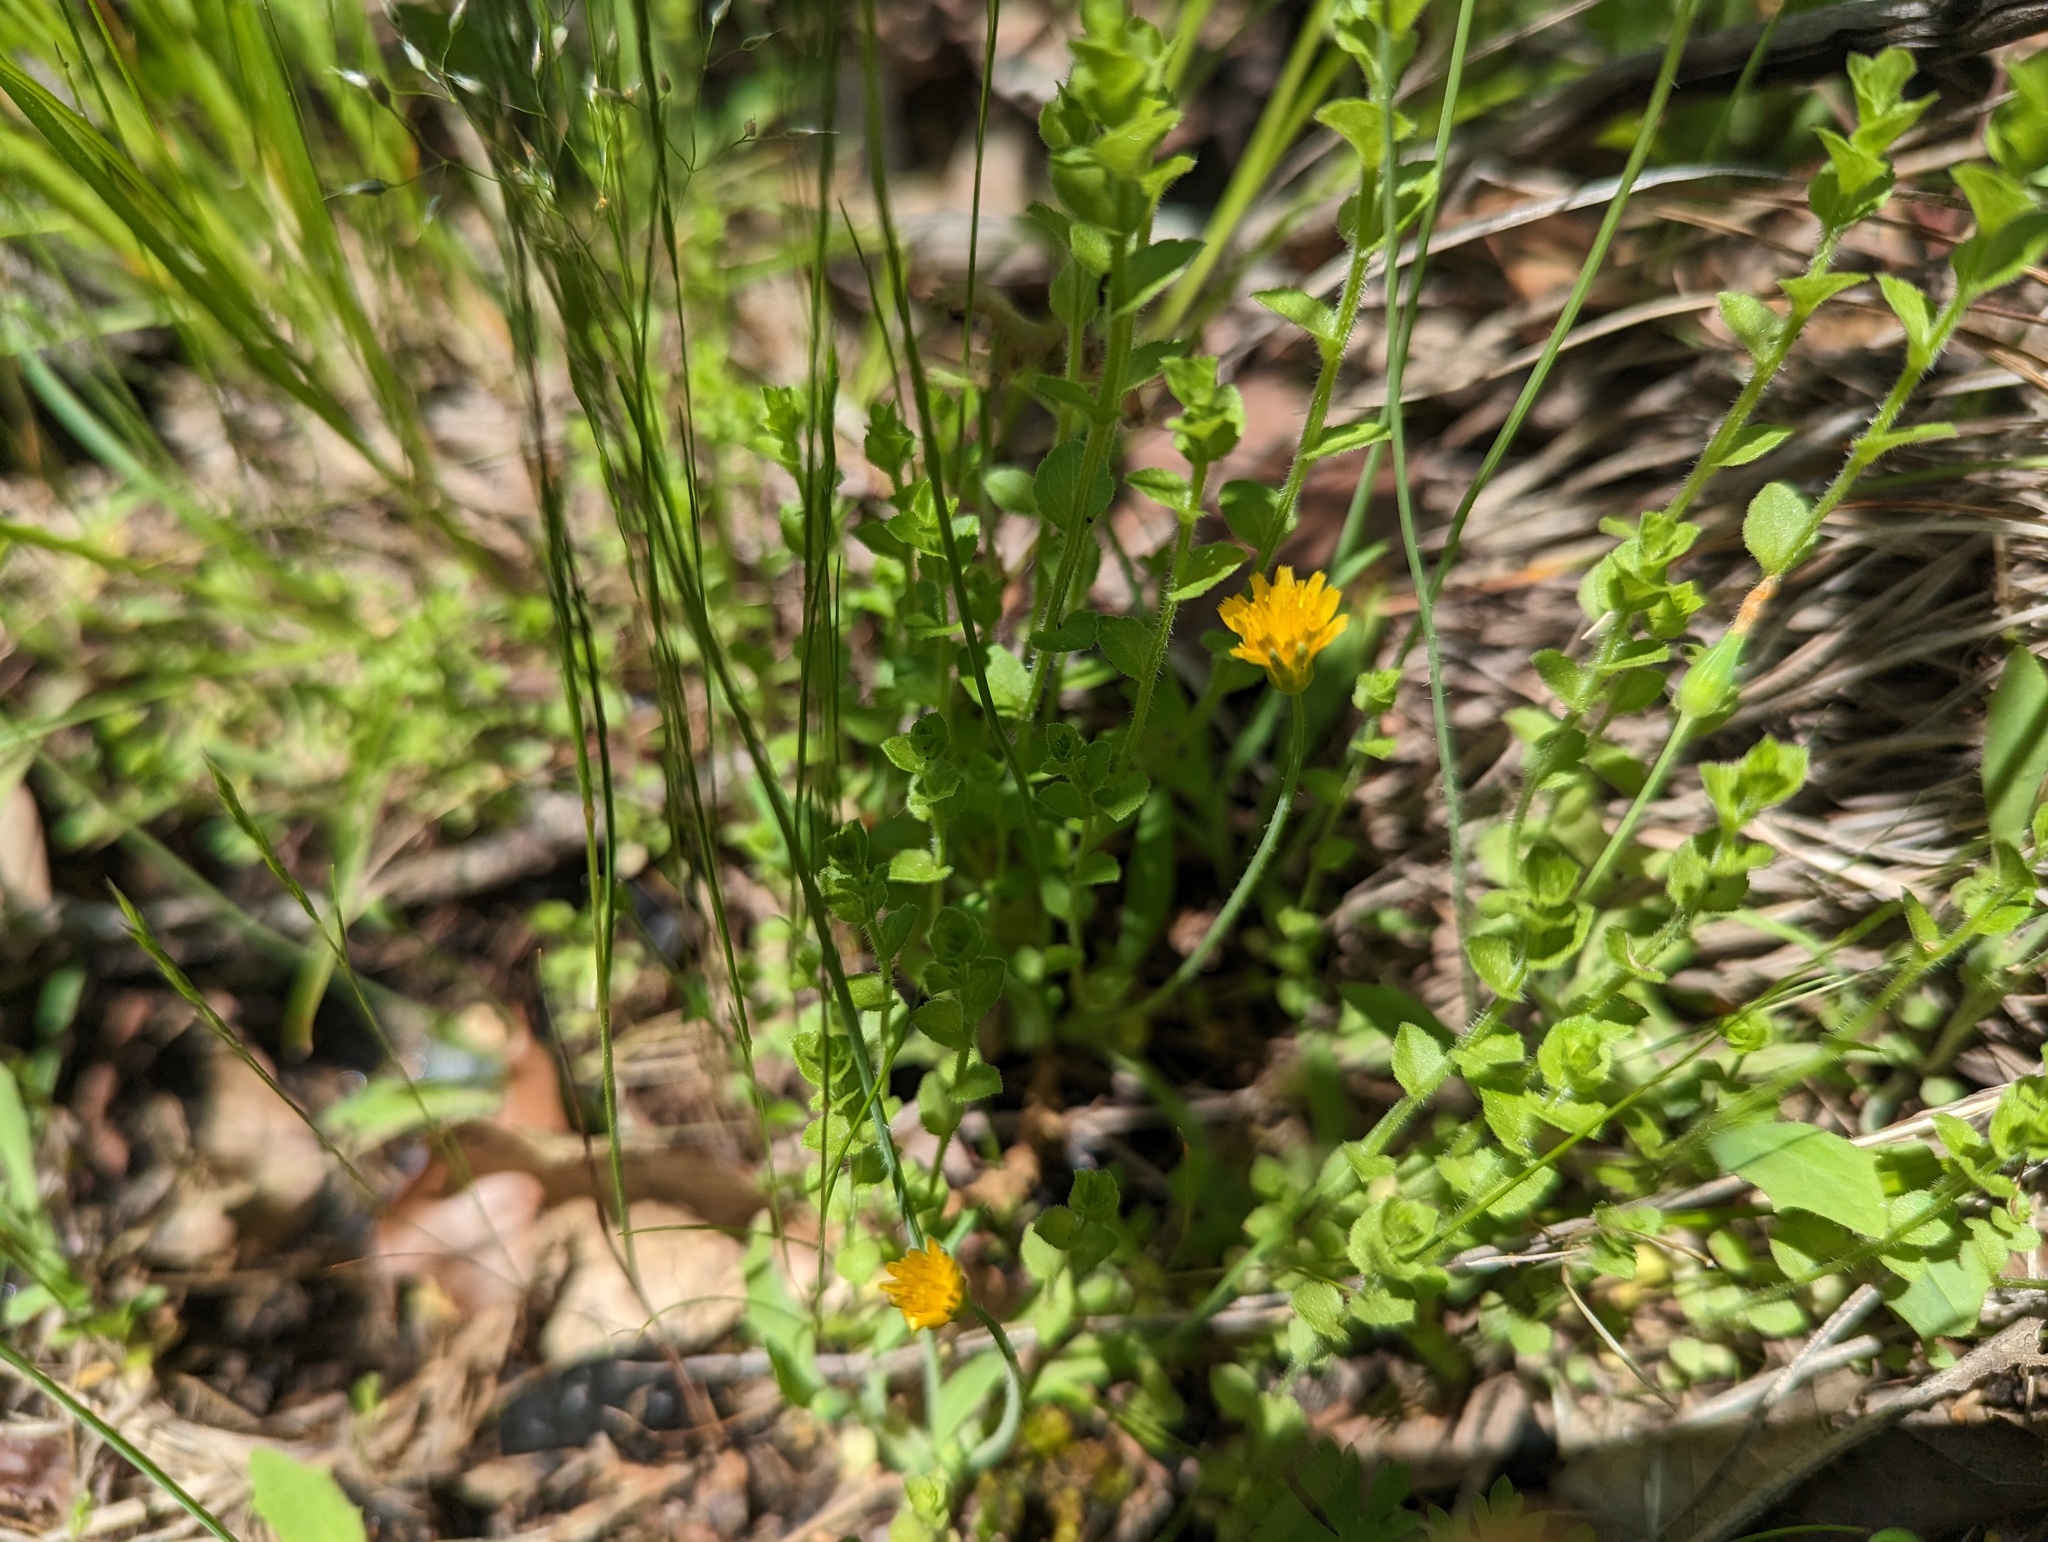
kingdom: Plantae
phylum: Tracheophyta
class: Magnoliopsida
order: Asterales
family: Asteraceae
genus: Krigia
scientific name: Krigia virginica
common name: Virginia dwarf-dandelion
